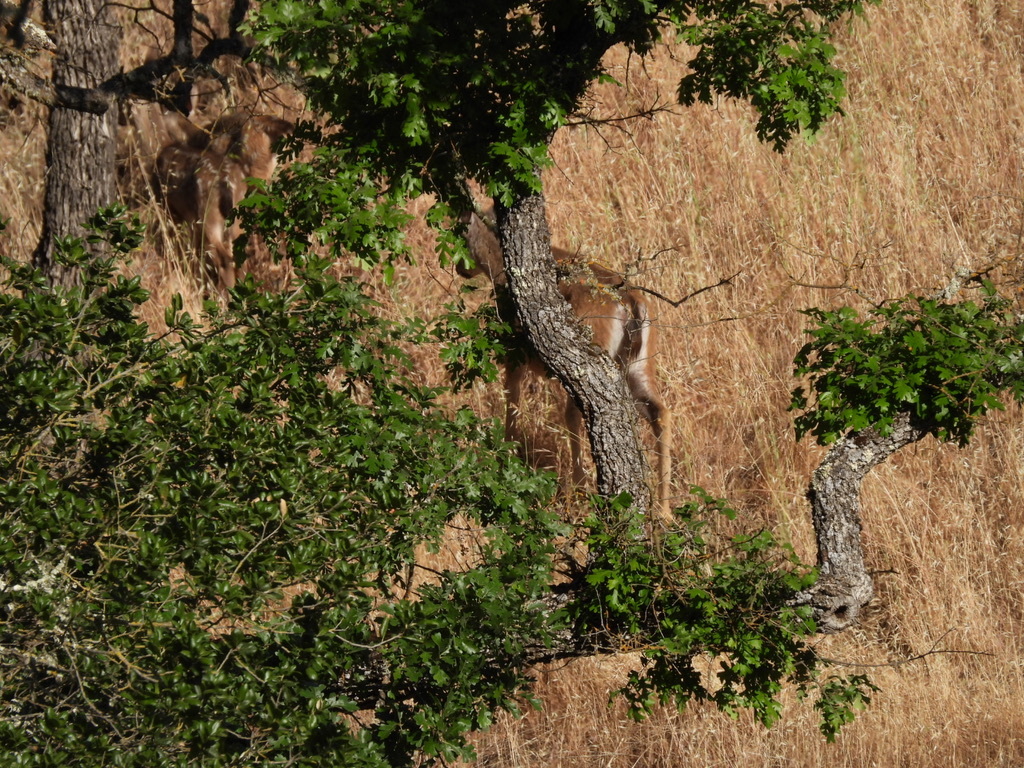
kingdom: Animalia
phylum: Chordata
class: Mammalia
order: Artiodactyla
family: Cervidae
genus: Odocoileus
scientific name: Odocoileus hemionus
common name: Mule deer
